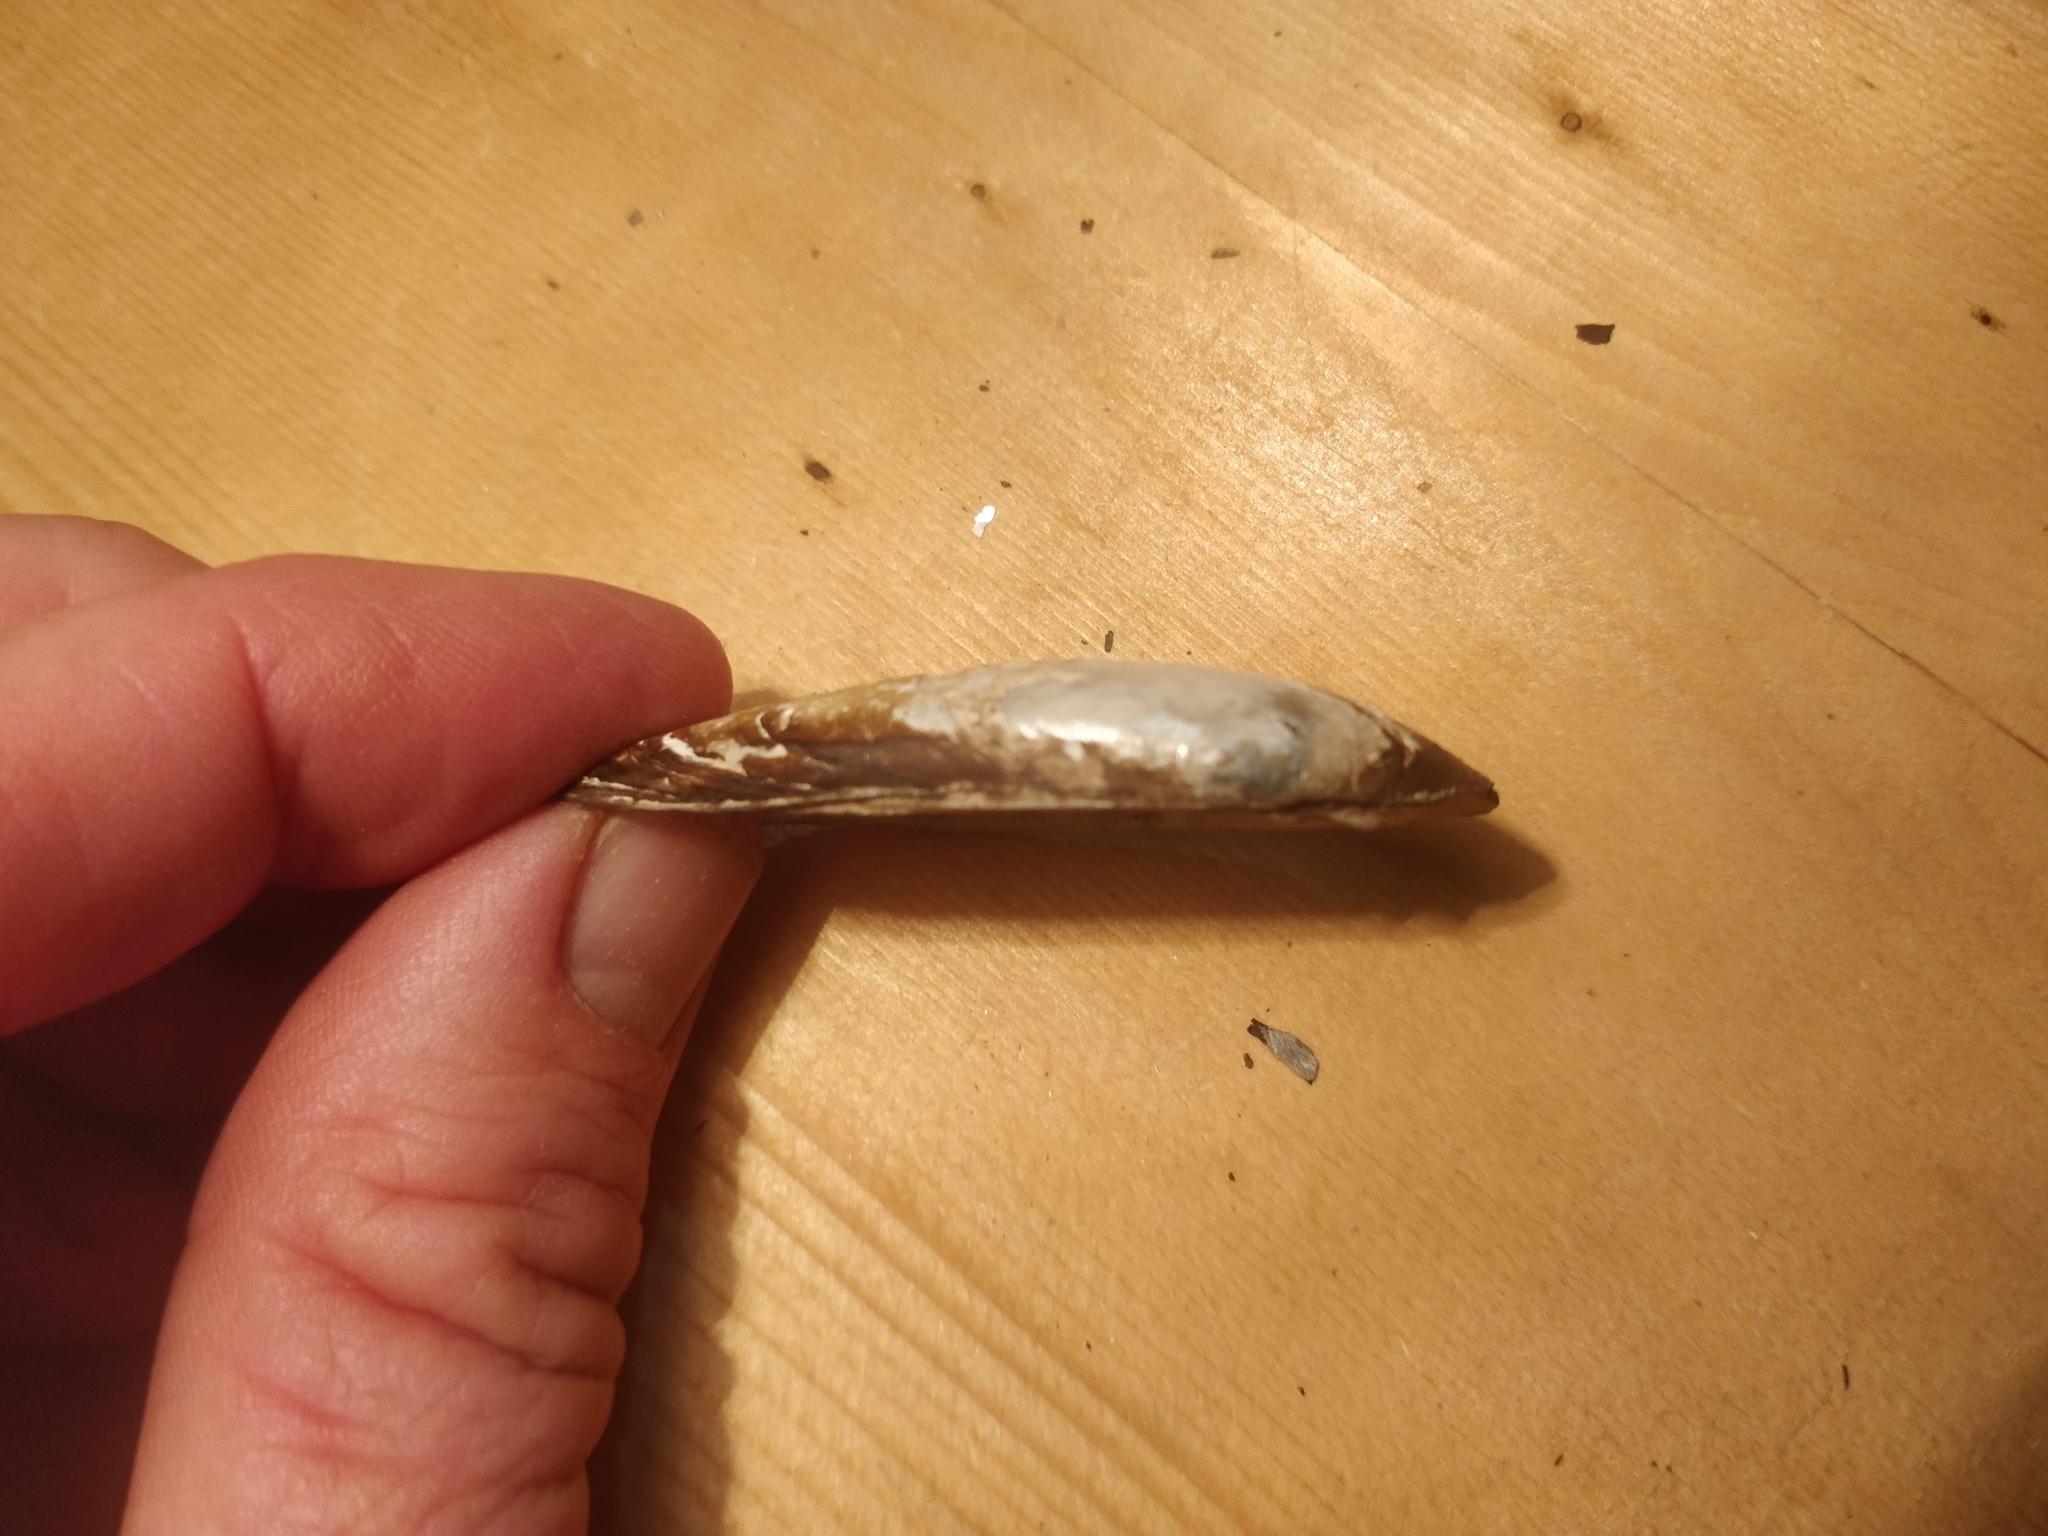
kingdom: Animalia
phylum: Mollusca
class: Bivalvia
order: Unionida
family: Unionidae
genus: Lampsilis
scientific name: Lampsilis teres
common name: Yellow sandshell
